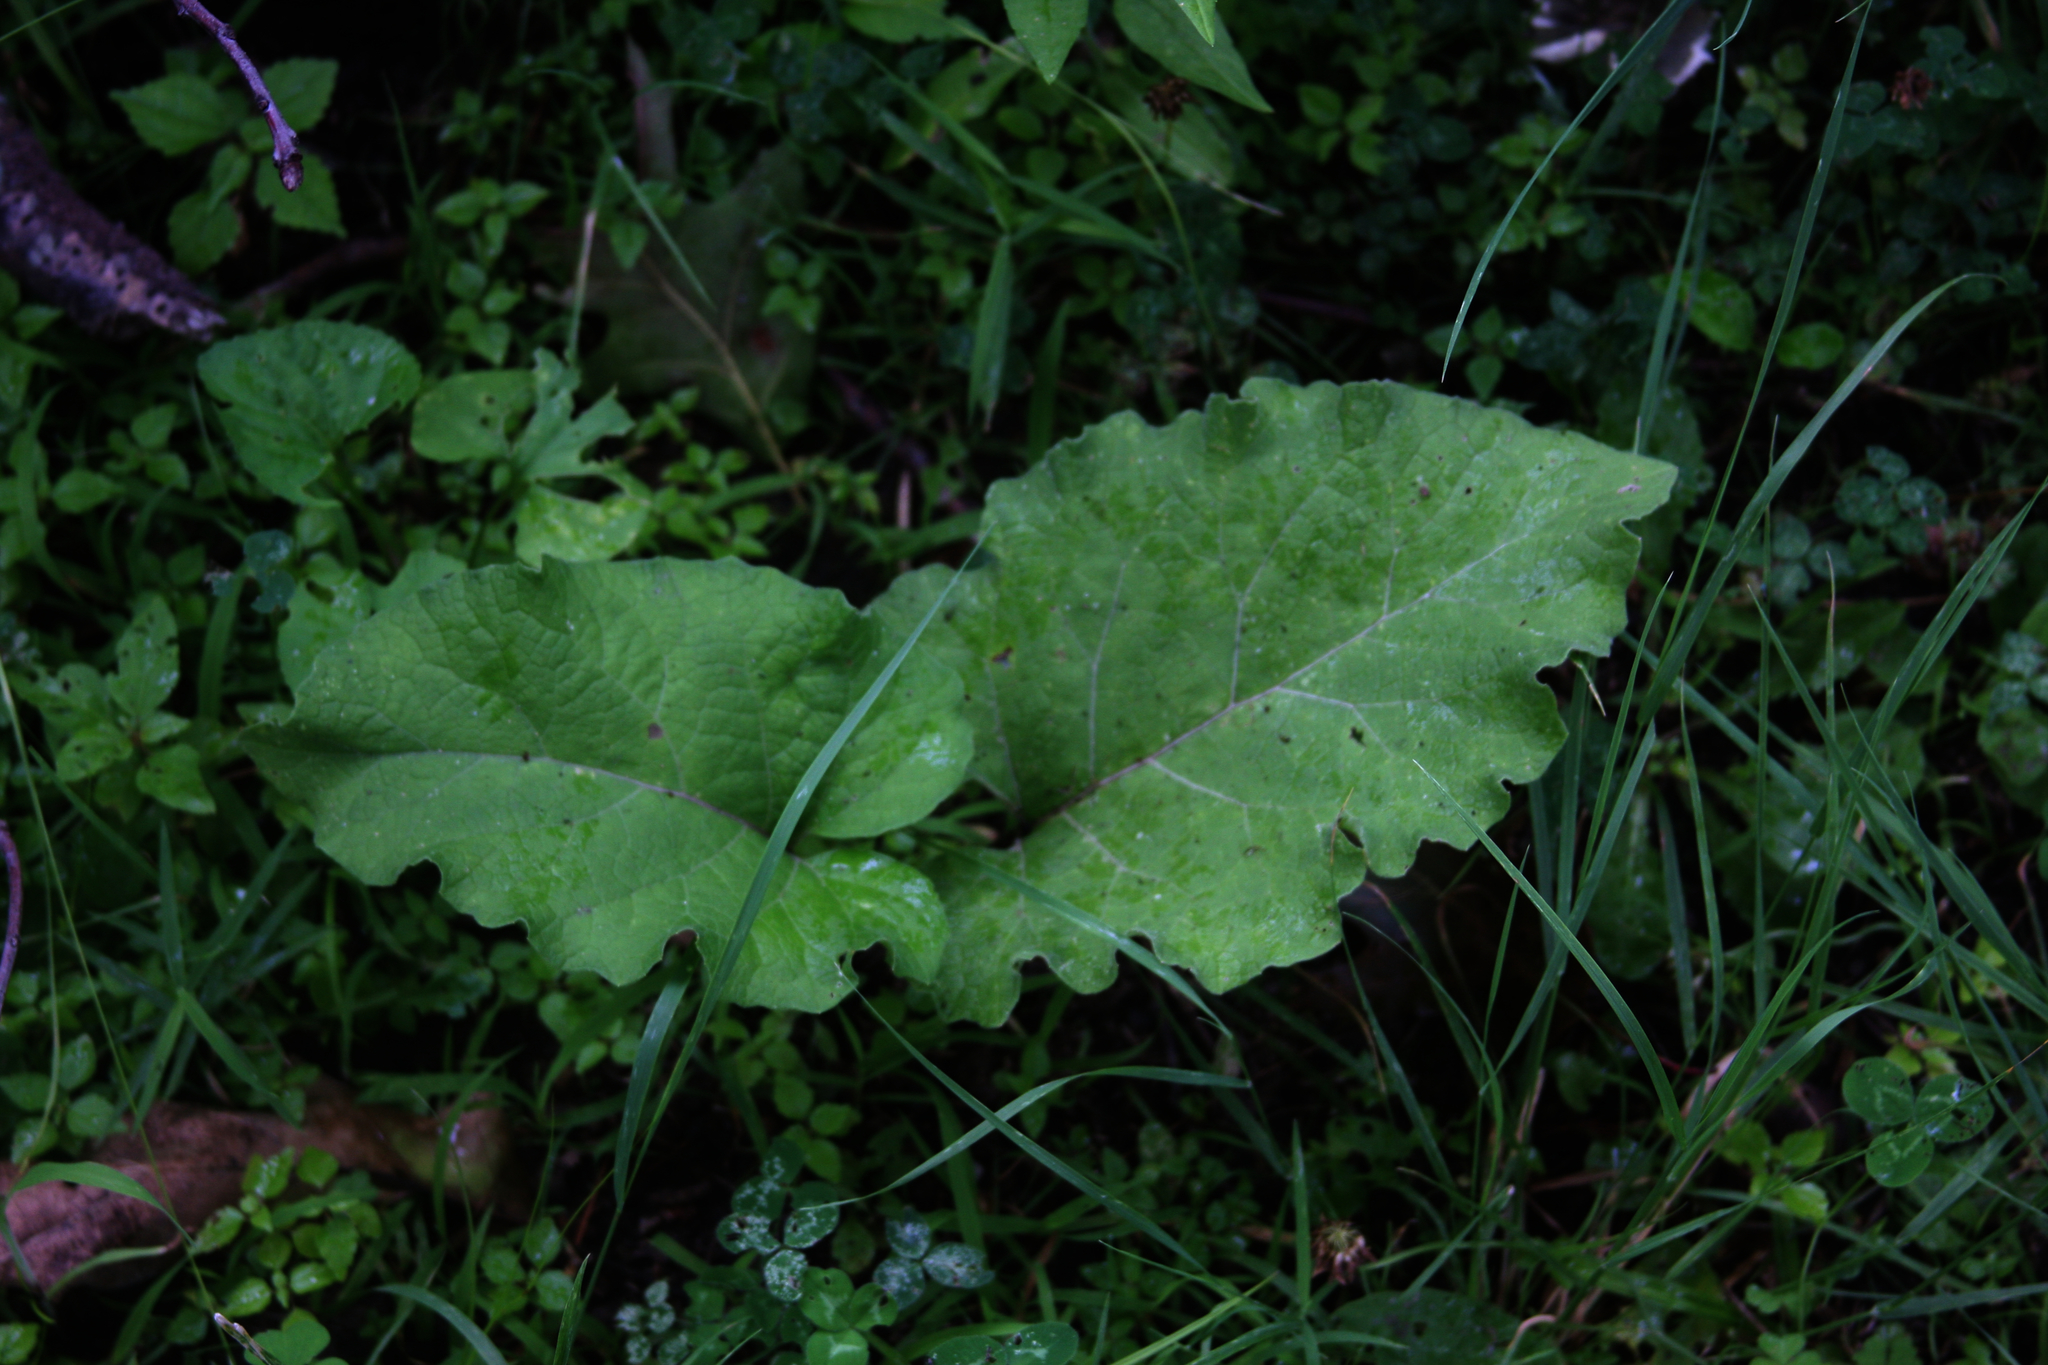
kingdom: Plantae
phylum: Tracheophyta
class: Magnoliopsida
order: Asterales
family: Asteraceae
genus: Arctium
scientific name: Arctium
